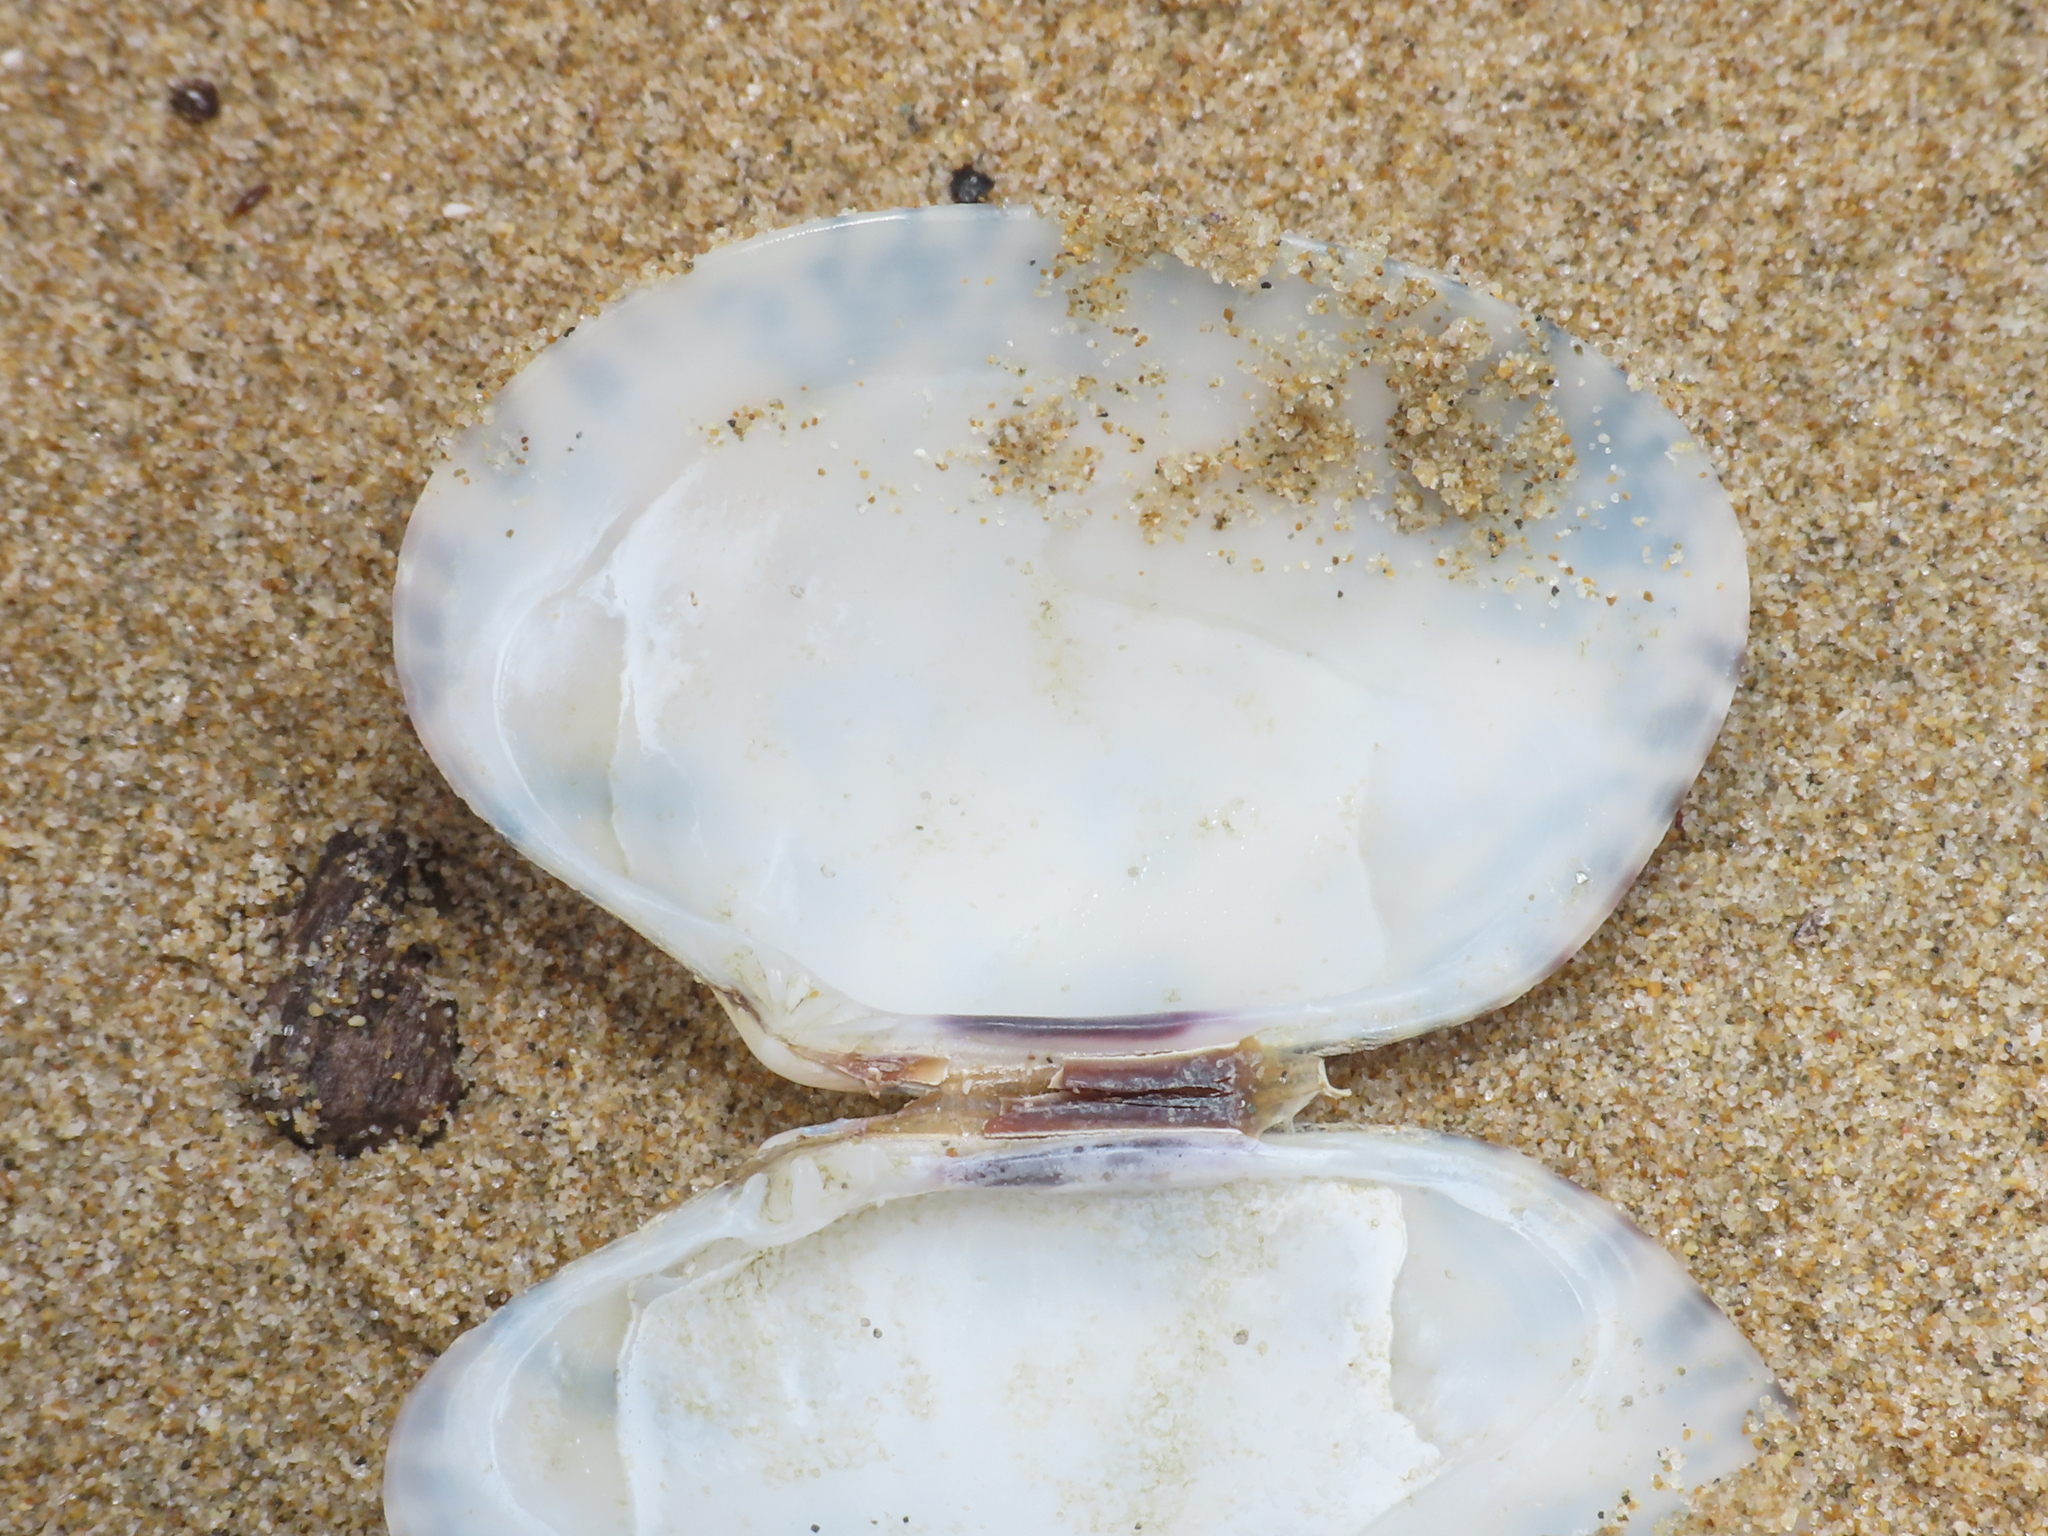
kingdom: Animalia
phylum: Mollusca
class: Bivalvia
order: Venerida
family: Veneridae
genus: Ruditapes
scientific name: Ruditapes decussatus
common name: Chequered carpet shell
